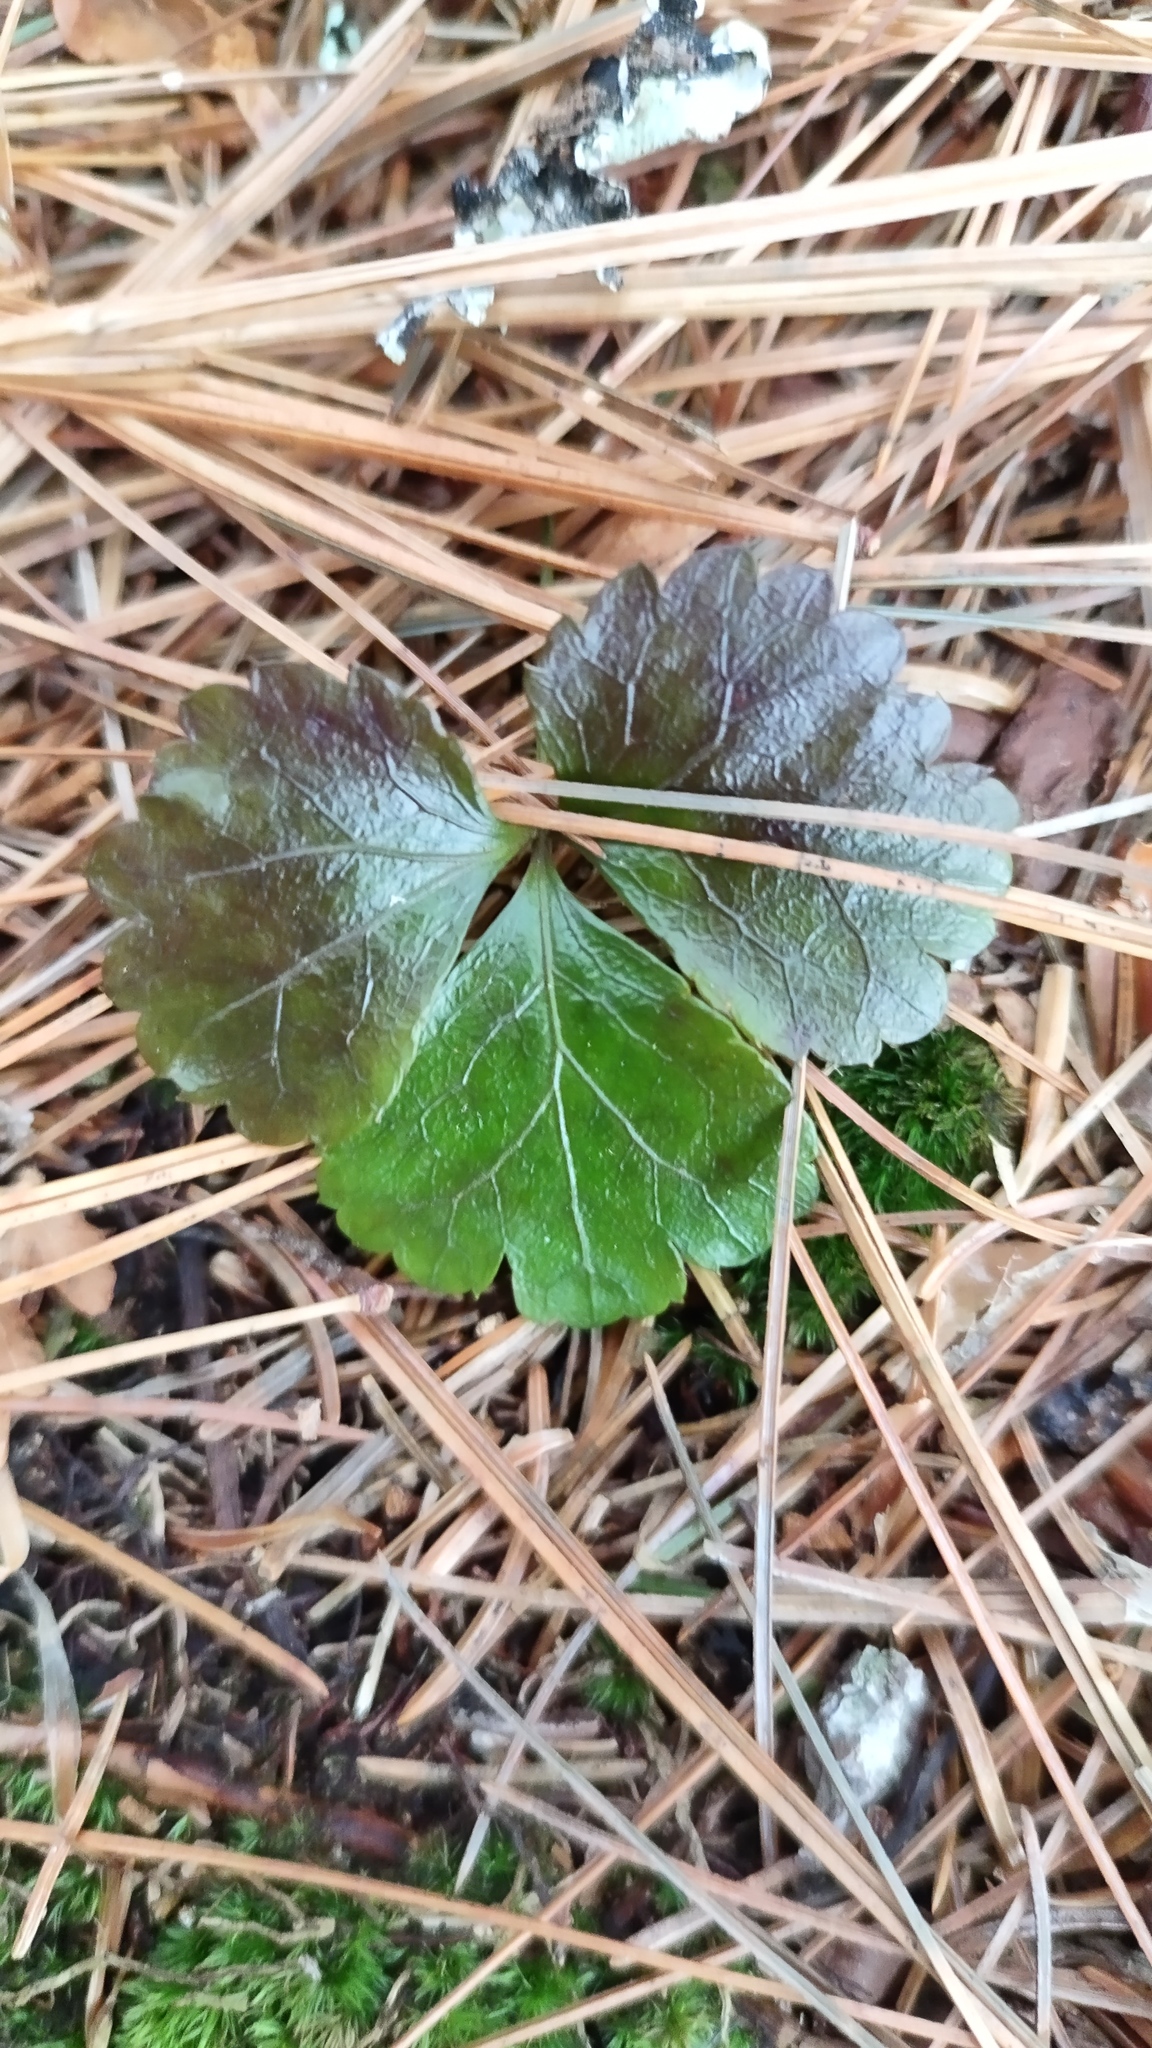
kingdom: Plantae
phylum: Tracheophyta
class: Magnoliopsida
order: Ranunculales
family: Ranunculaceae
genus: Coptis
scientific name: Coptis trifolia
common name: Canker-root
